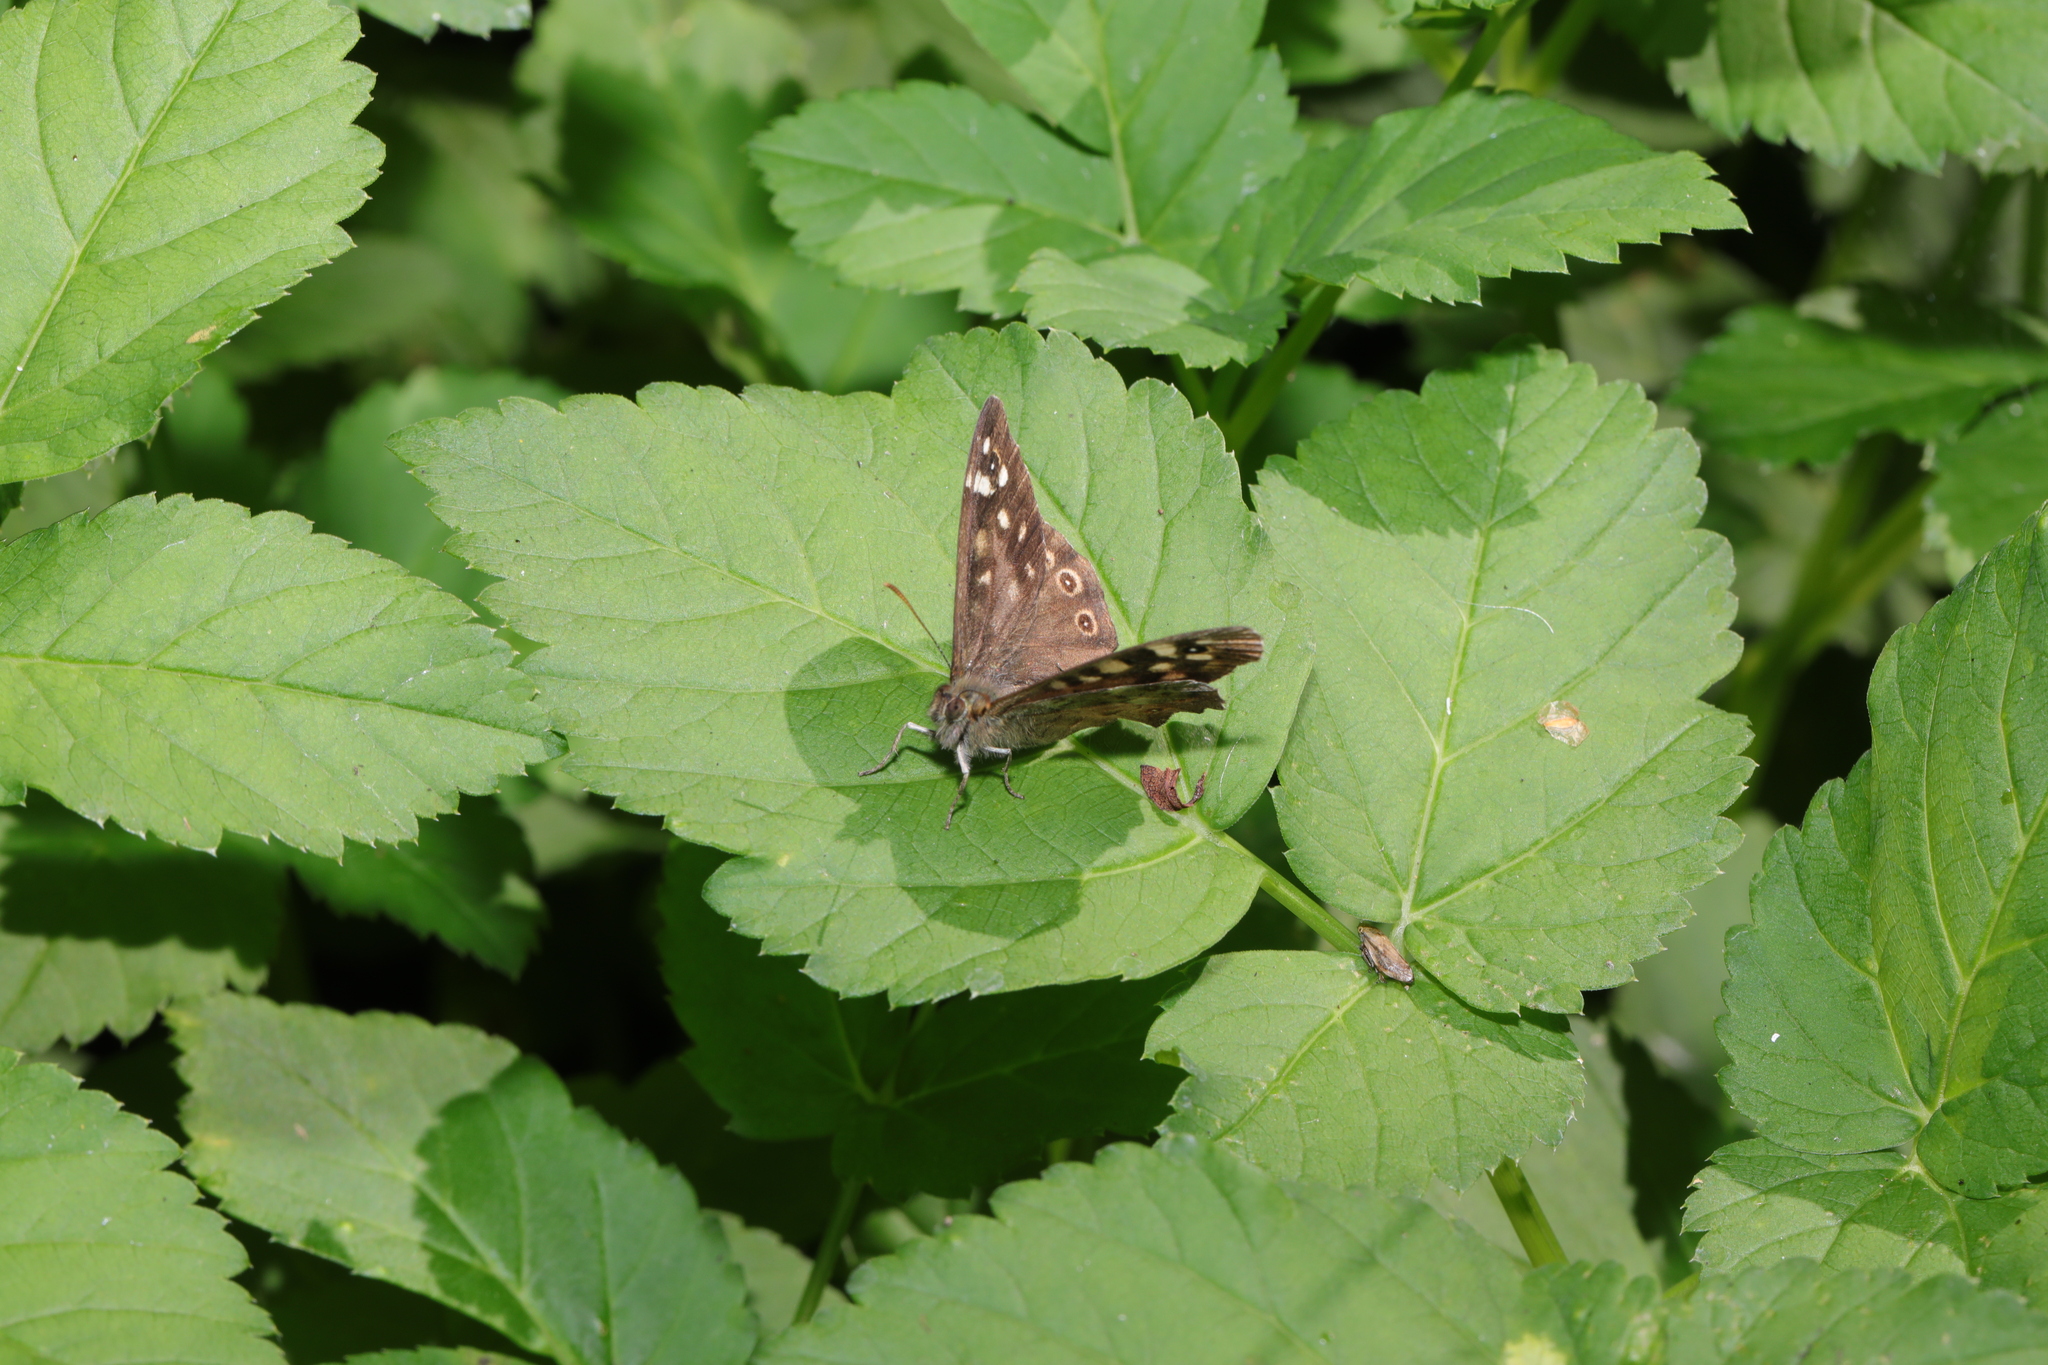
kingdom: Animalia
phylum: Arthropoda
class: Insecta
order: Lepidoptera
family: Nymphalidae
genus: Pararge
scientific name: Pararge aegeria
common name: Speckled wood
